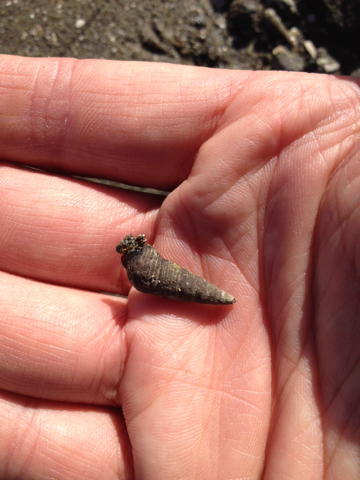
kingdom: Animalia
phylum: Mollusca
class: Gastropoda
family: Batillariidae
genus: Batillaria
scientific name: Batillaria attramentaria
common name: Japanese false cerith
